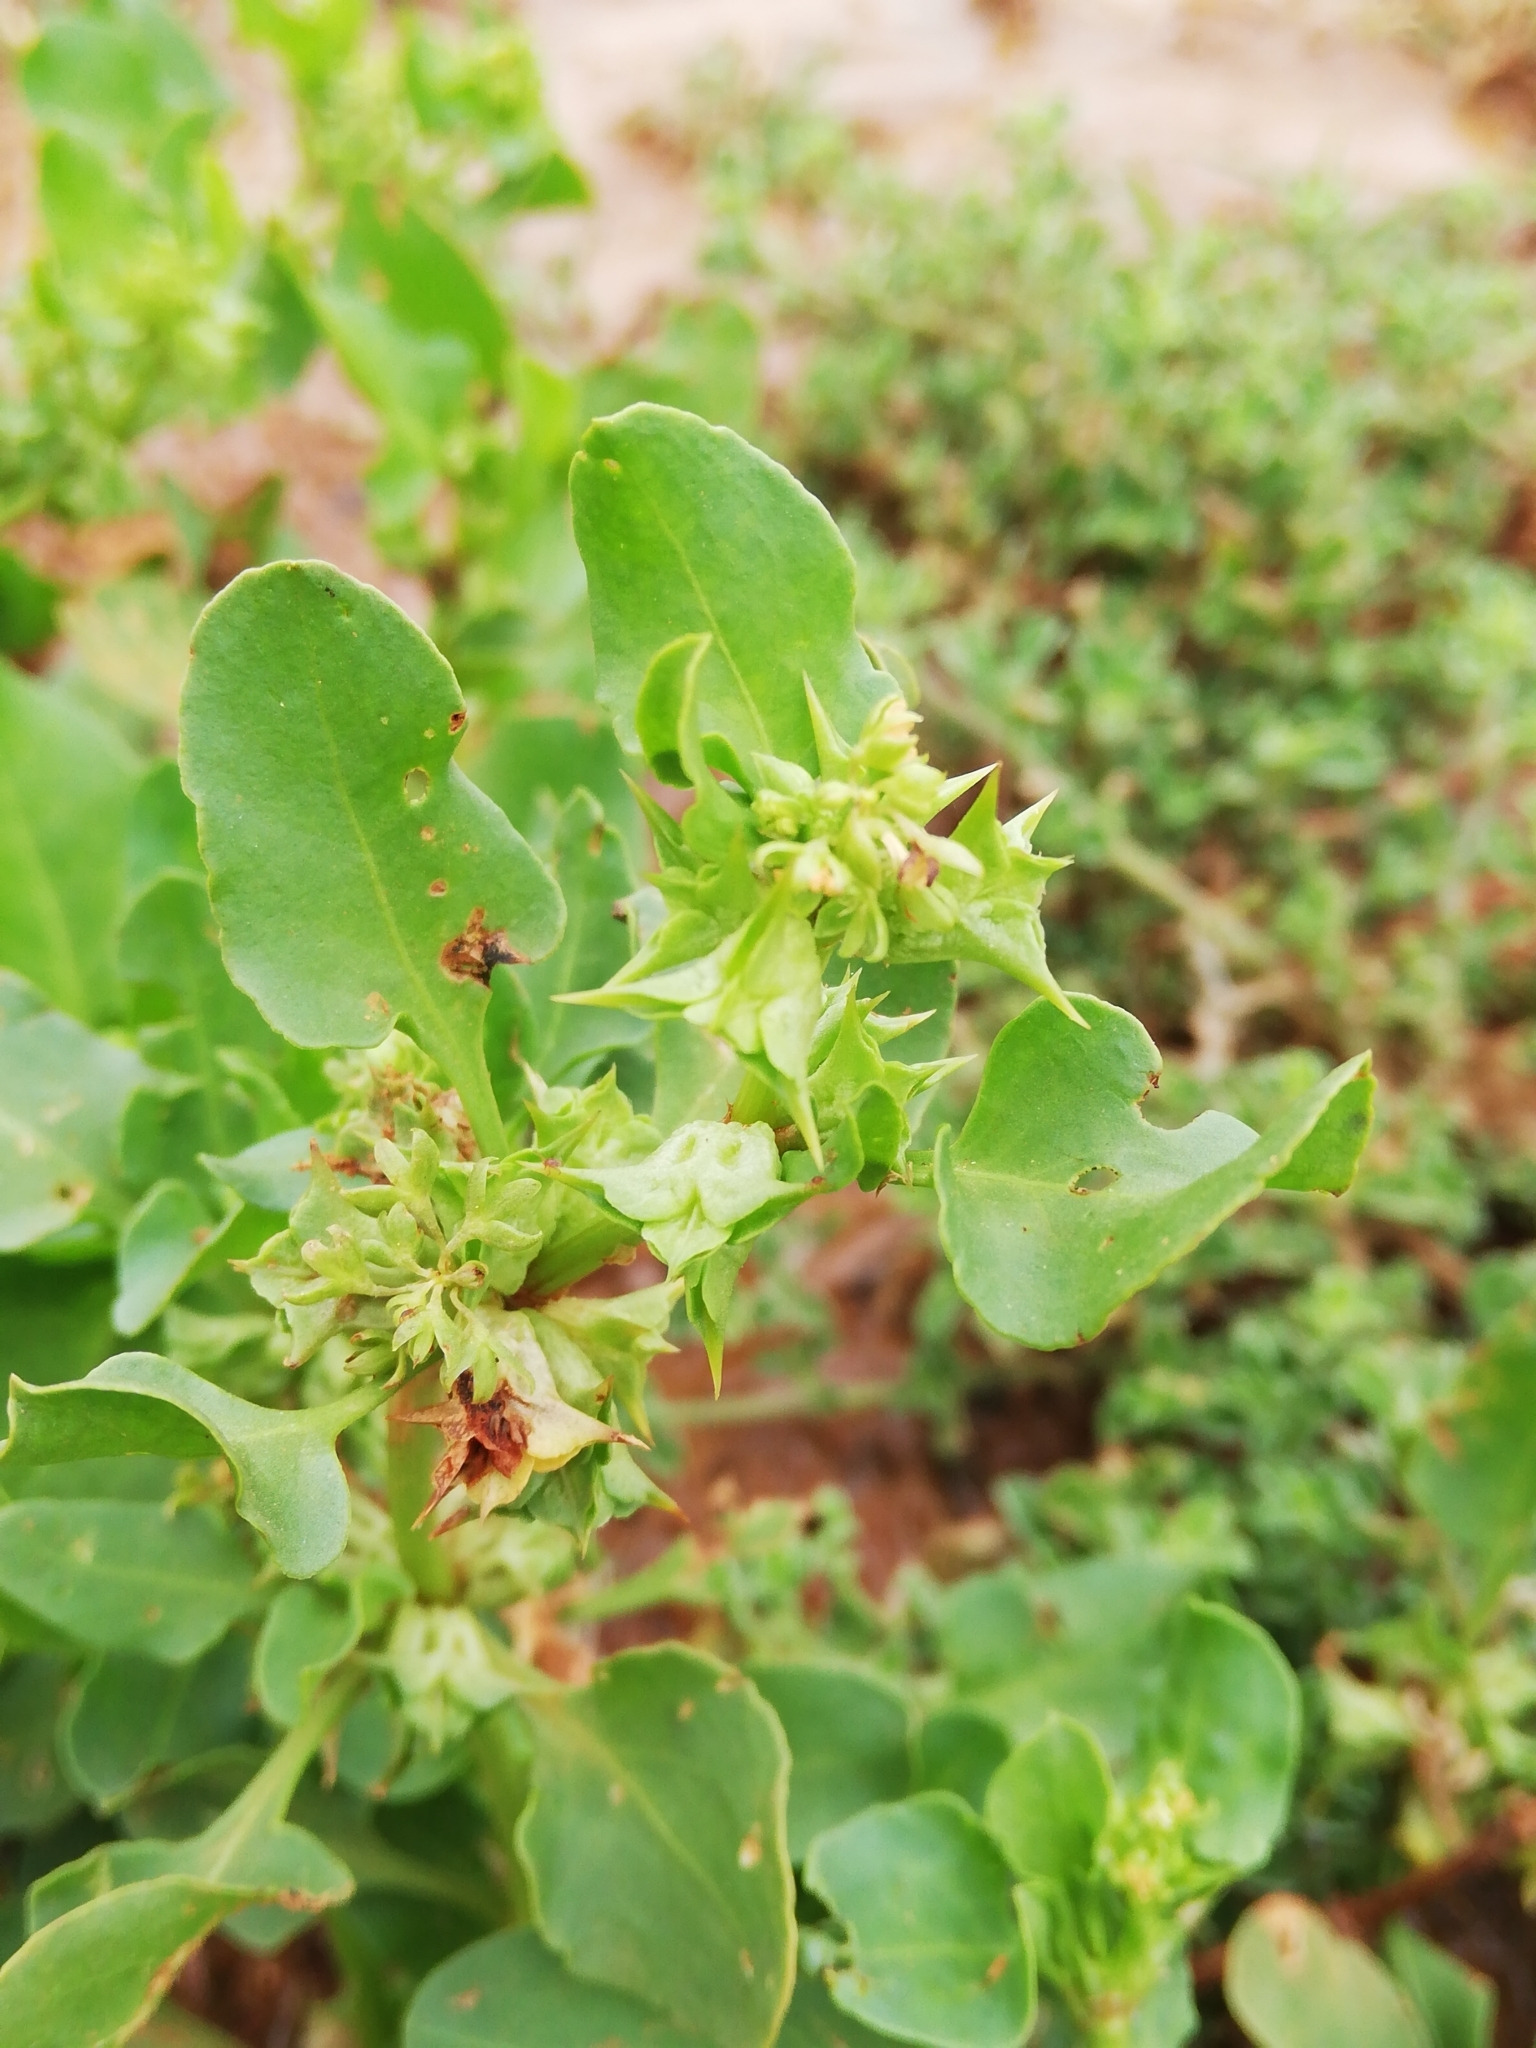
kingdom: Plantae
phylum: Tracheophyta
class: Magnoliopsida
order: Caryophyllales
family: Polygonaceae
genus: Rumex
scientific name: Rumex hypogaeus
